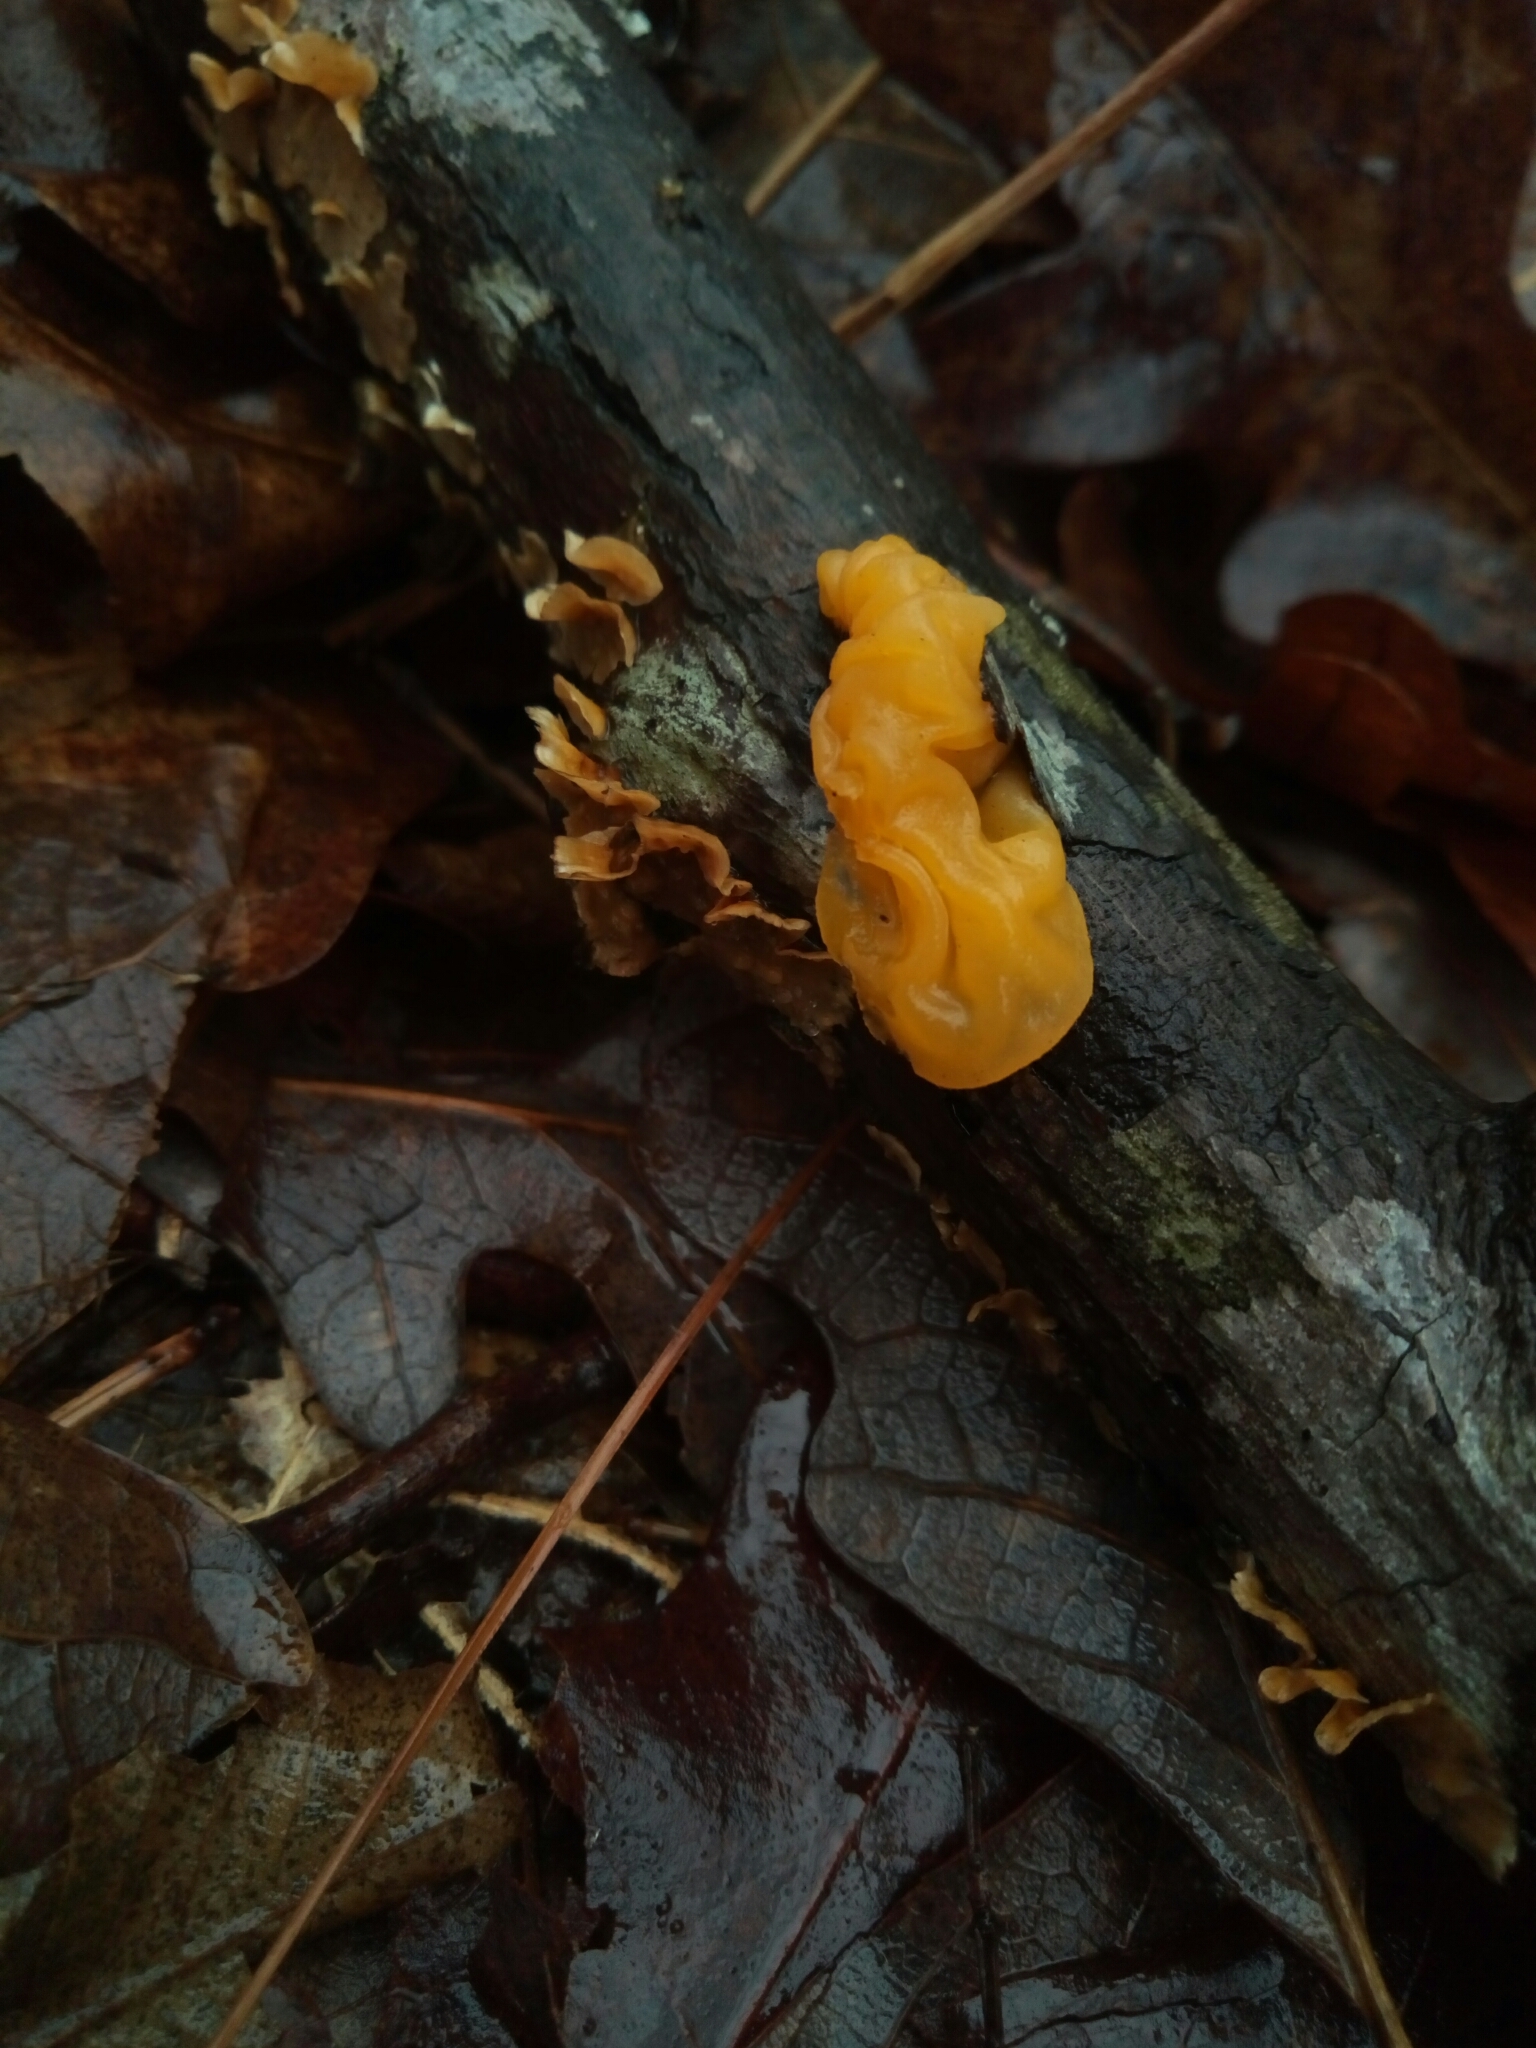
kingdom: Fungi
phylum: Basidiomycota
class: Tremellomycetes
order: Tremellales
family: Tremellaceae
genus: Tremella
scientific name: Tremella mesenterica
